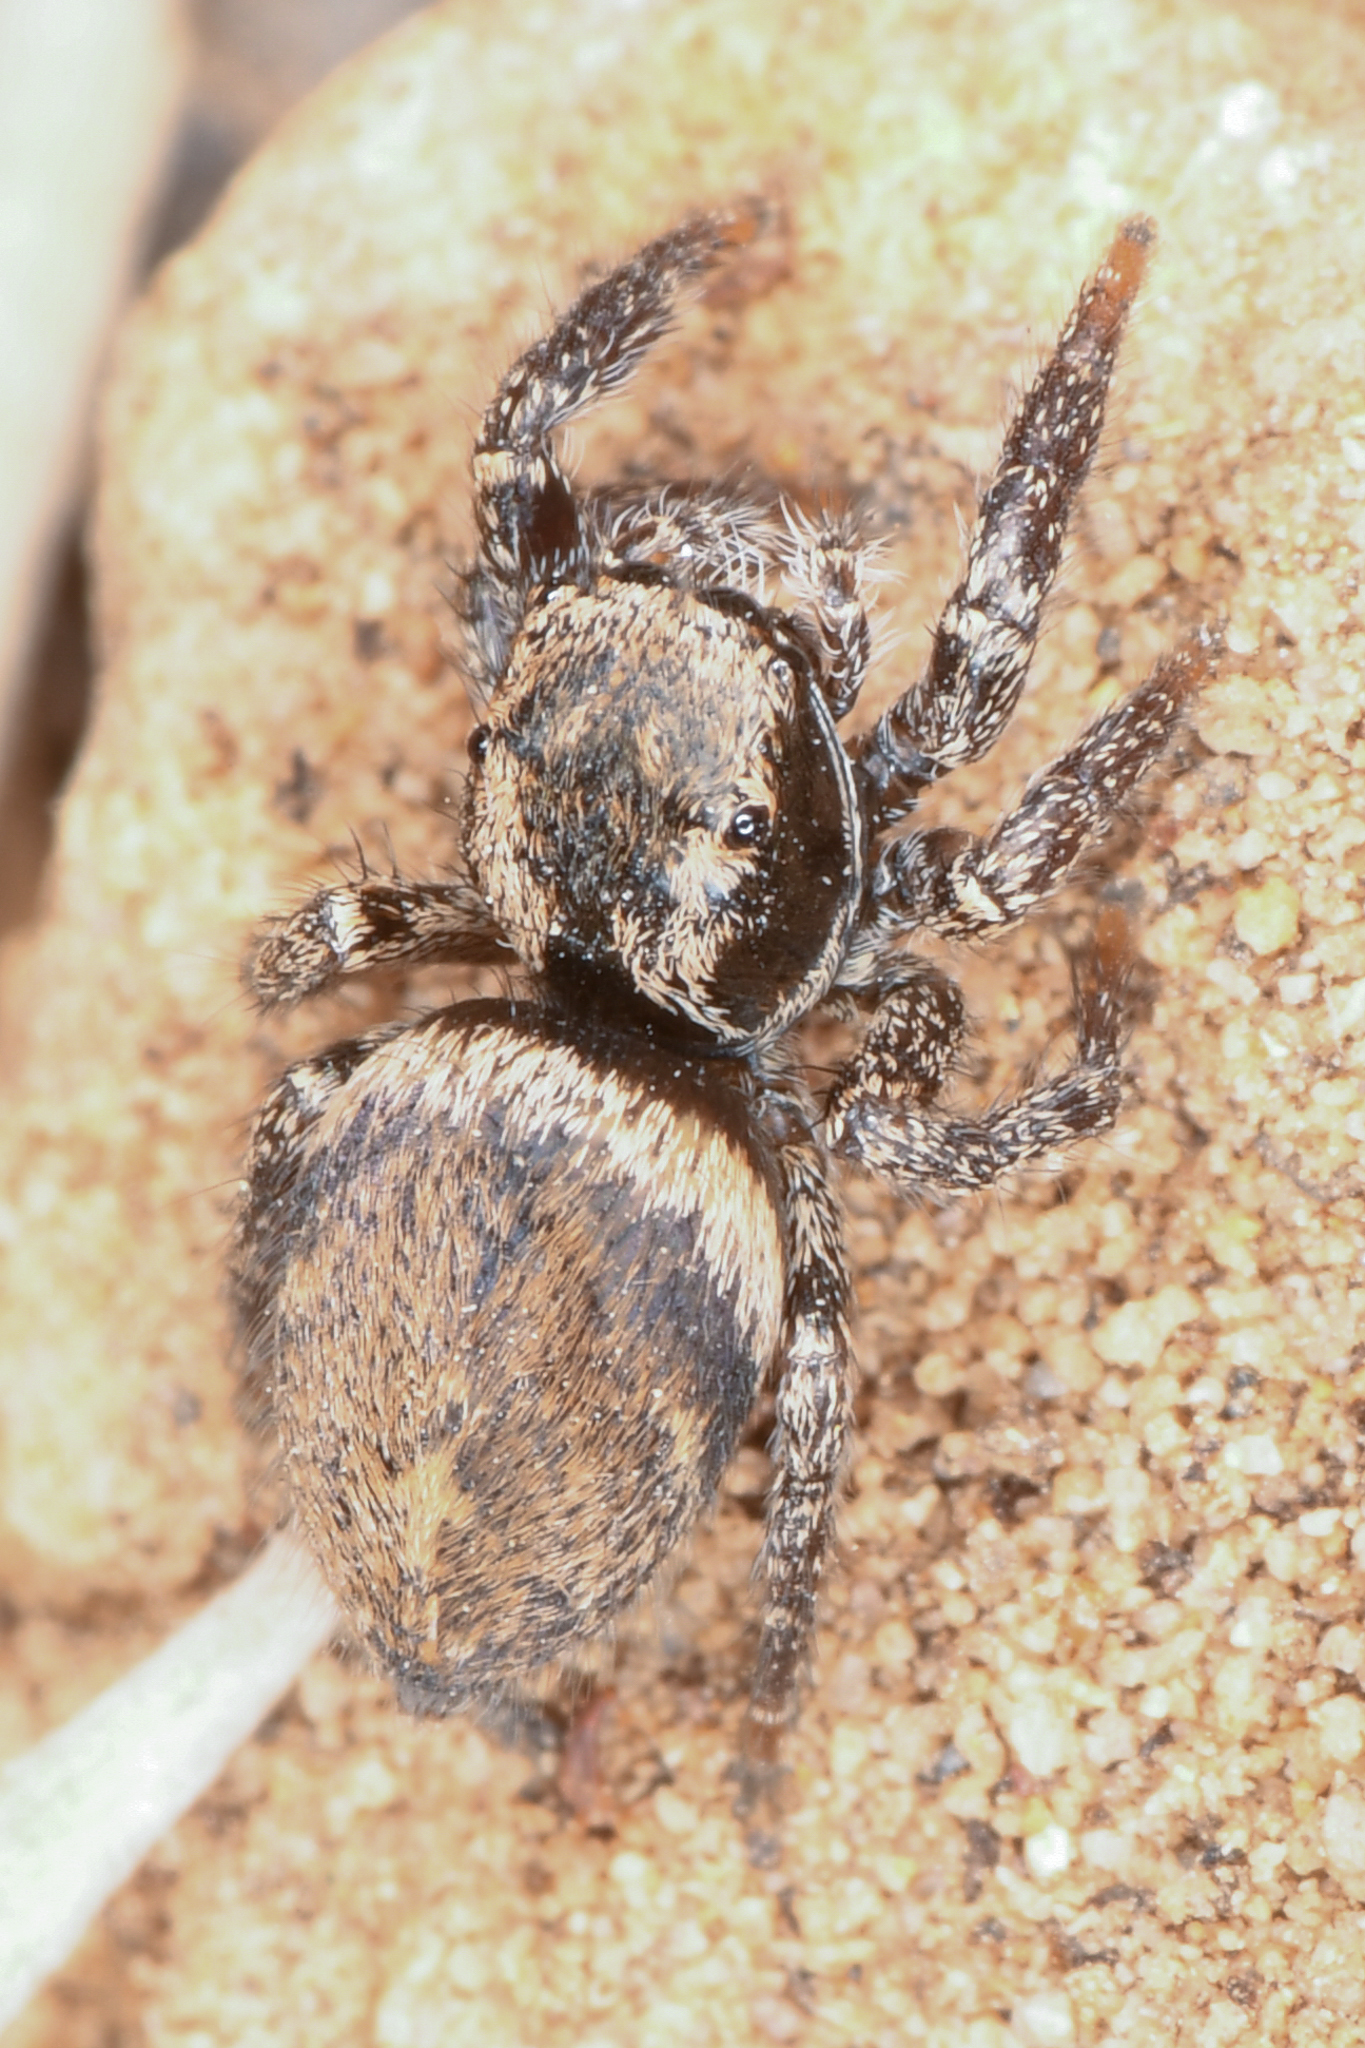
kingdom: Animalia
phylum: Arthropoda
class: Arachnida
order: Araneae
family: Salticidae
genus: Habronattus
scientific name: Habronattus oregonensis
